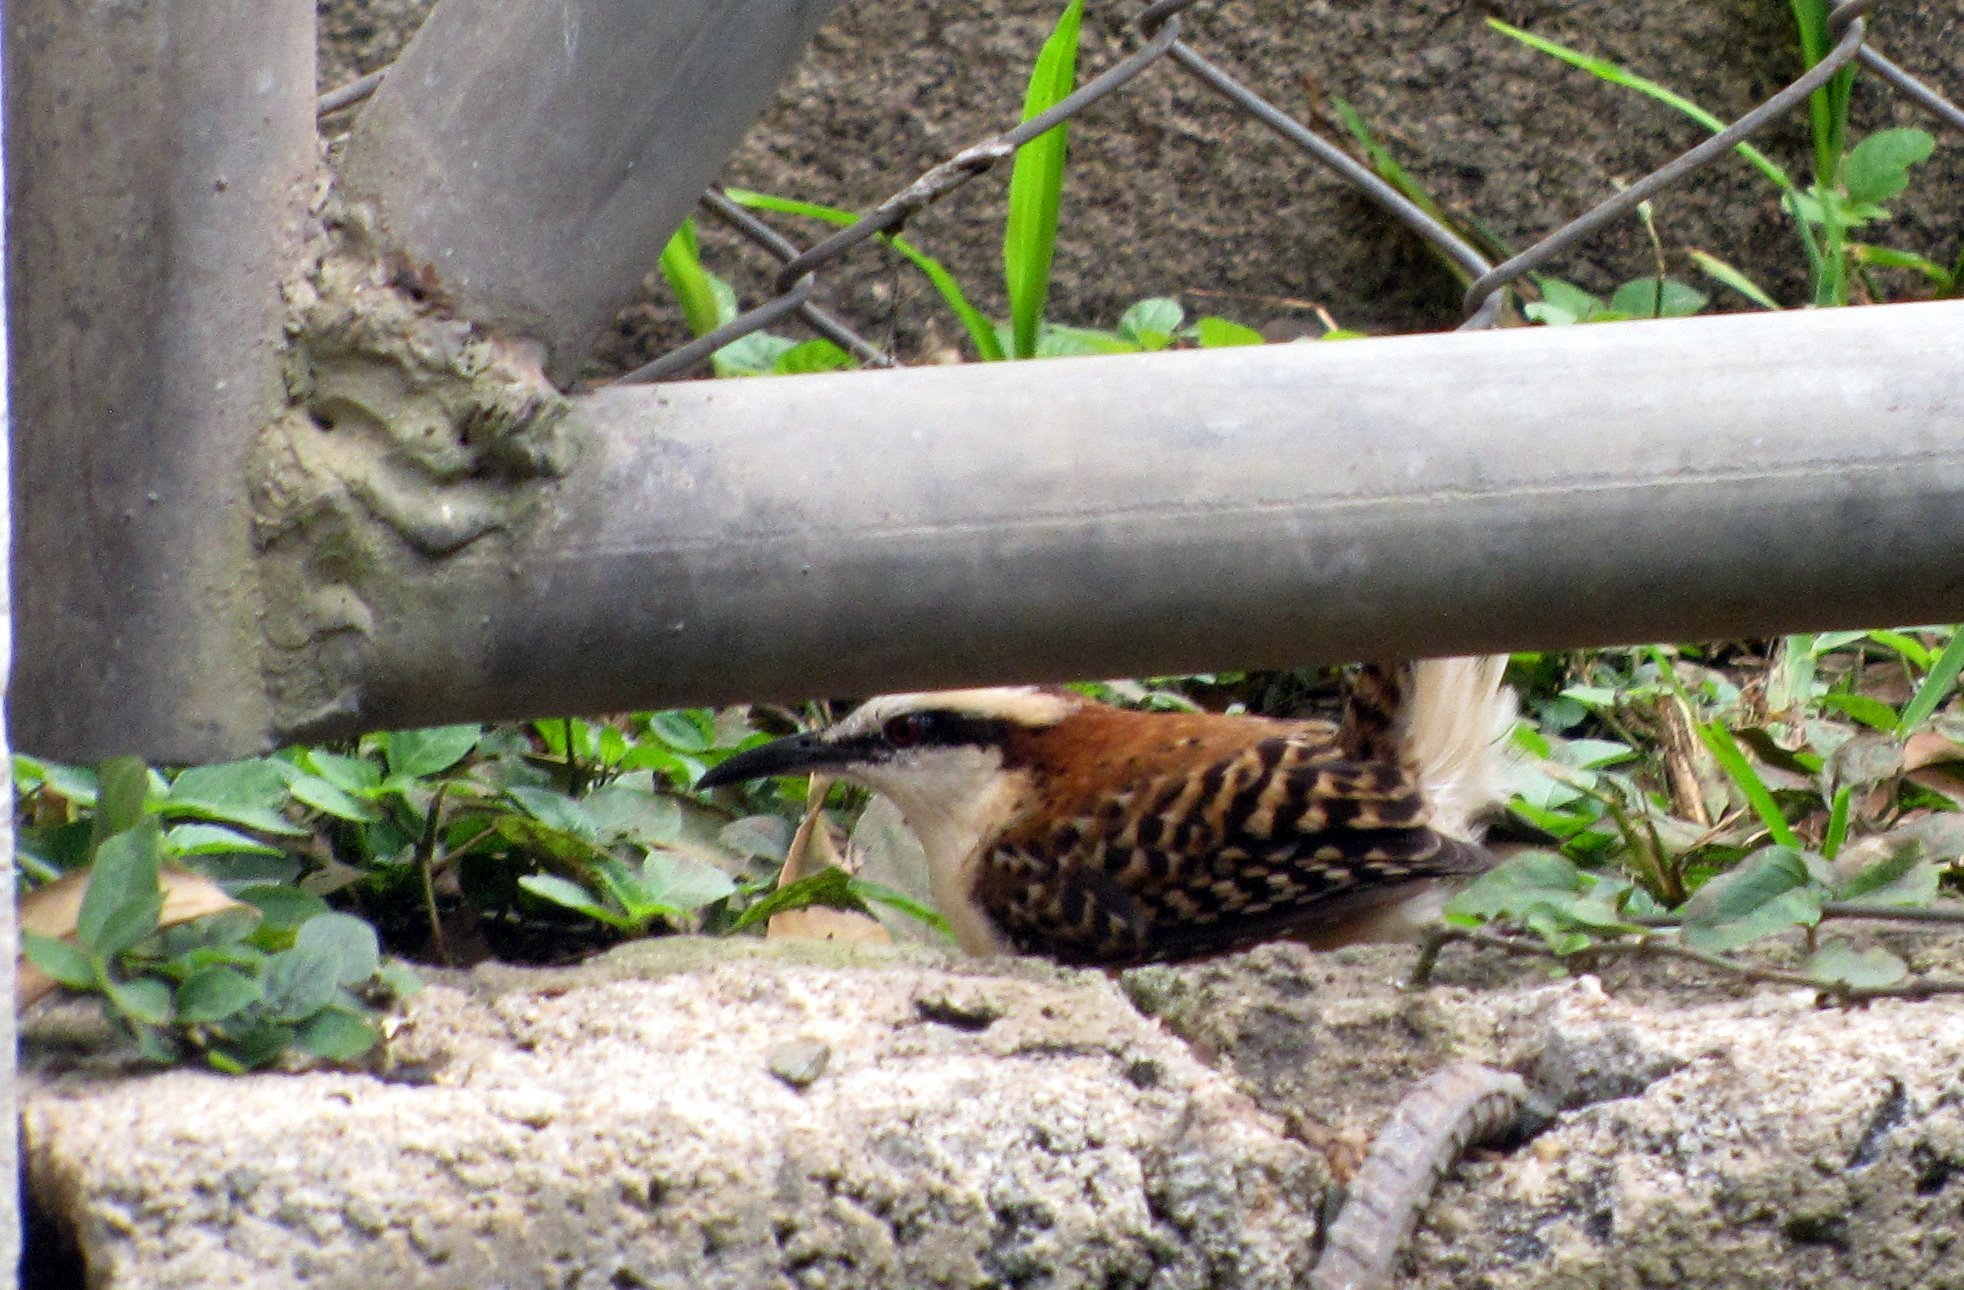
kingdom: Animalia
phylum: Chordata
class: Aves
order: Passeriformes
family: Troglodytidae
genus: Campylorhynchus
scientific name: Campylorhynchus rufinucha
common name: Rufous-naped wren
